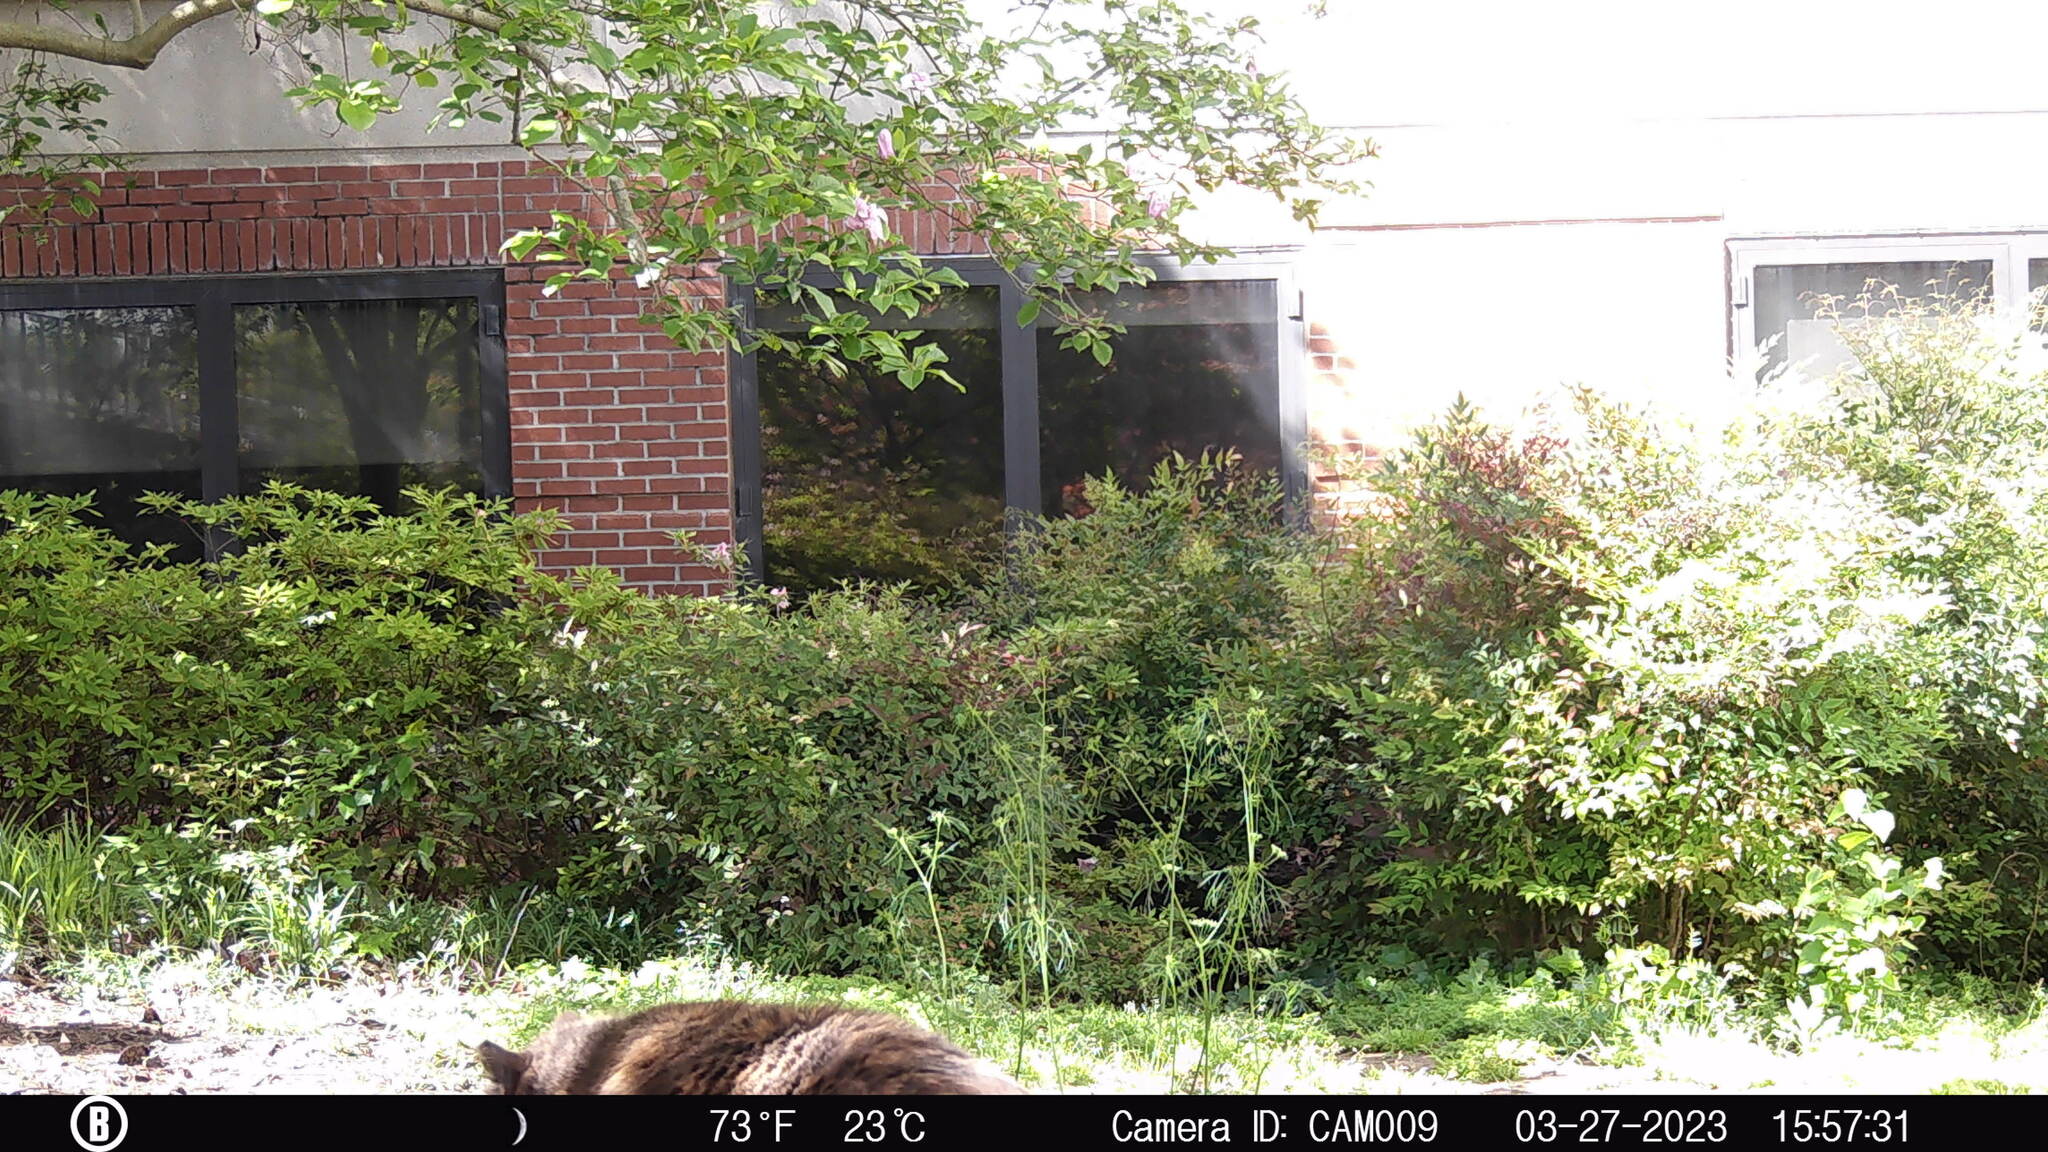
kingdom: Animalia
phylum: Chordata
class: Mammalia
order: Carnivora
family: Felidae
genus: Felis
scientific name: Felis catus
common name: Domestic cat
